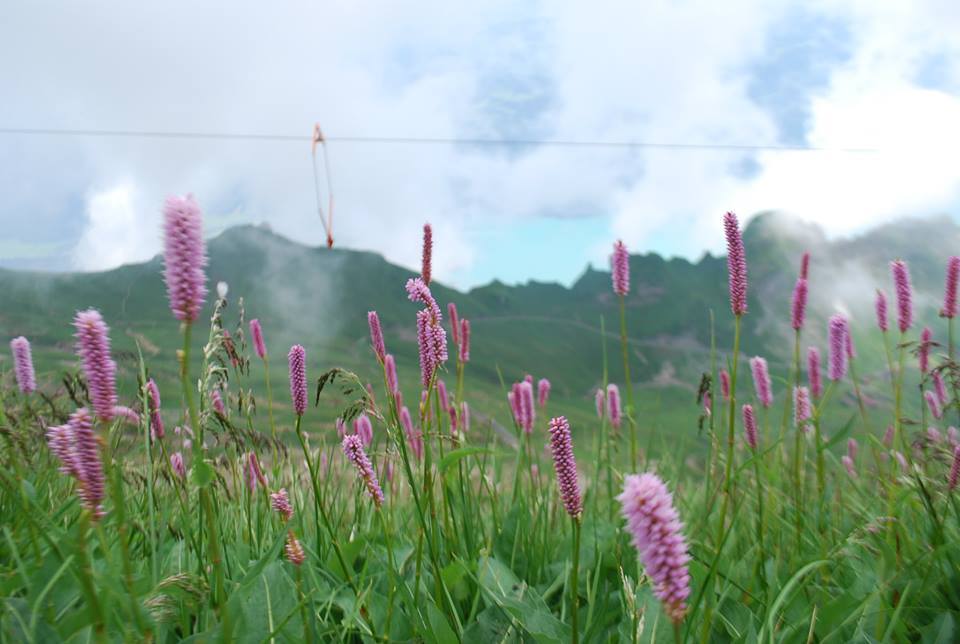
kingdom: Plantae
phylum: Tracheophyta
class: Magnoliopsida
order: Caryophyllales
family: Polygonaceae
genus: Bistorta
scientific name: Bistorta officinalis
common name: Common bistort
